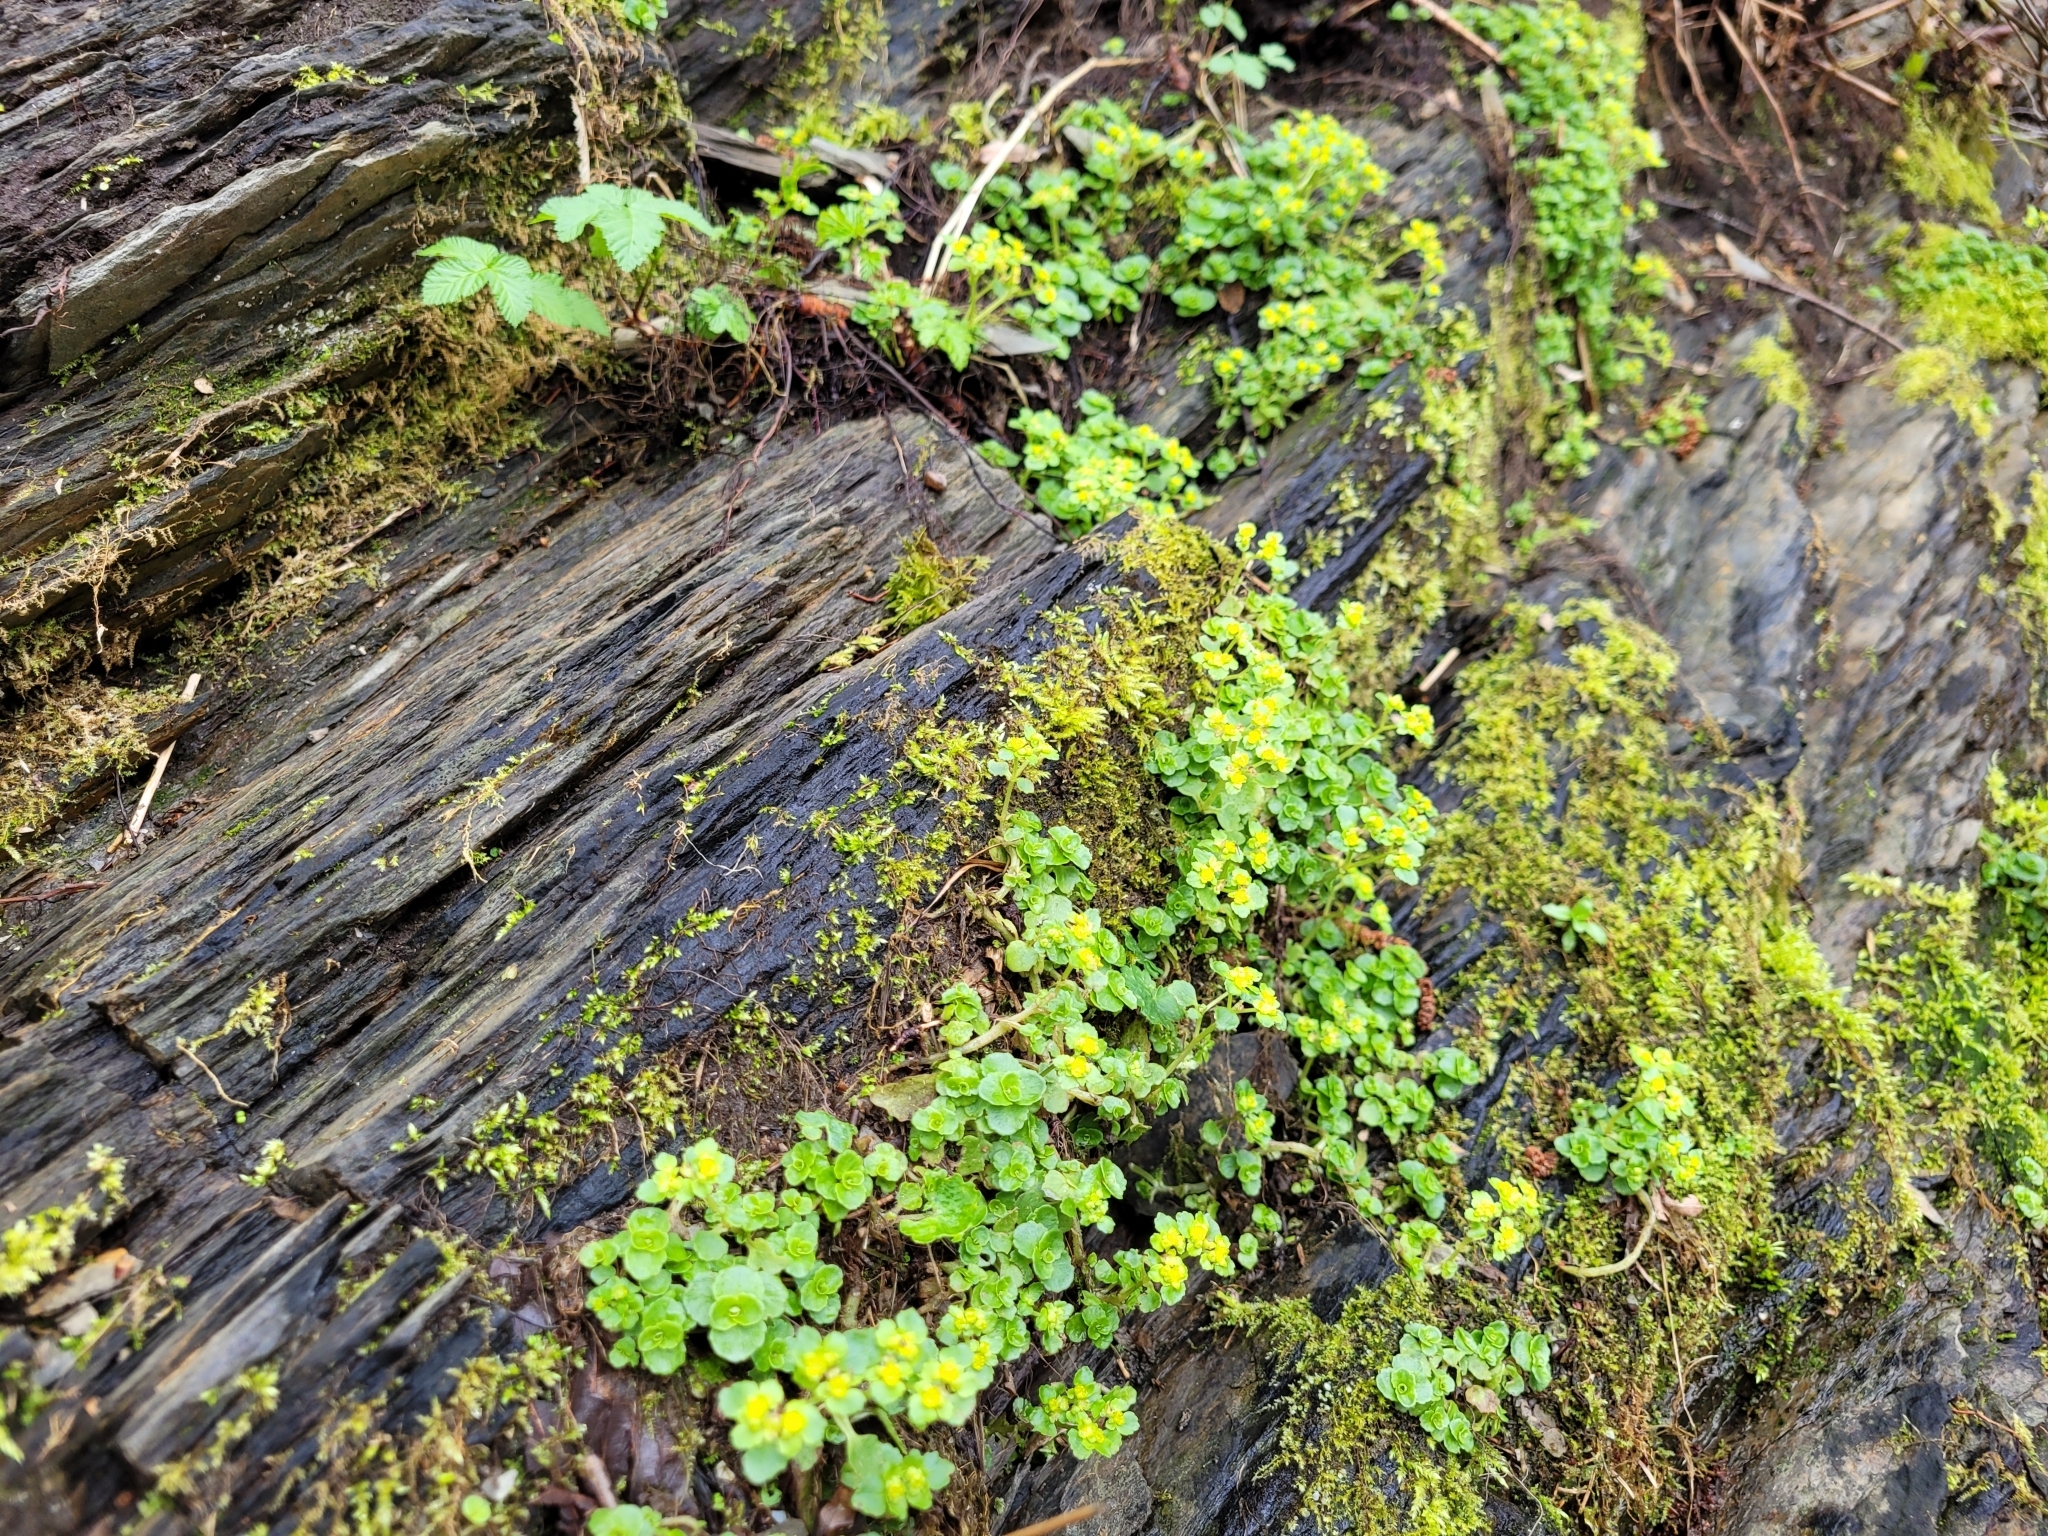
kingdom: Plantae
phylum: Tracheophyta
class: Magnoliopsida
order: Saxifragales
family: Saxifragaceae
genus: Chrysosplenium
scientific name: Chrysosplenium oppositifolium
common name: Opposite-leaved golden-saxifrage
